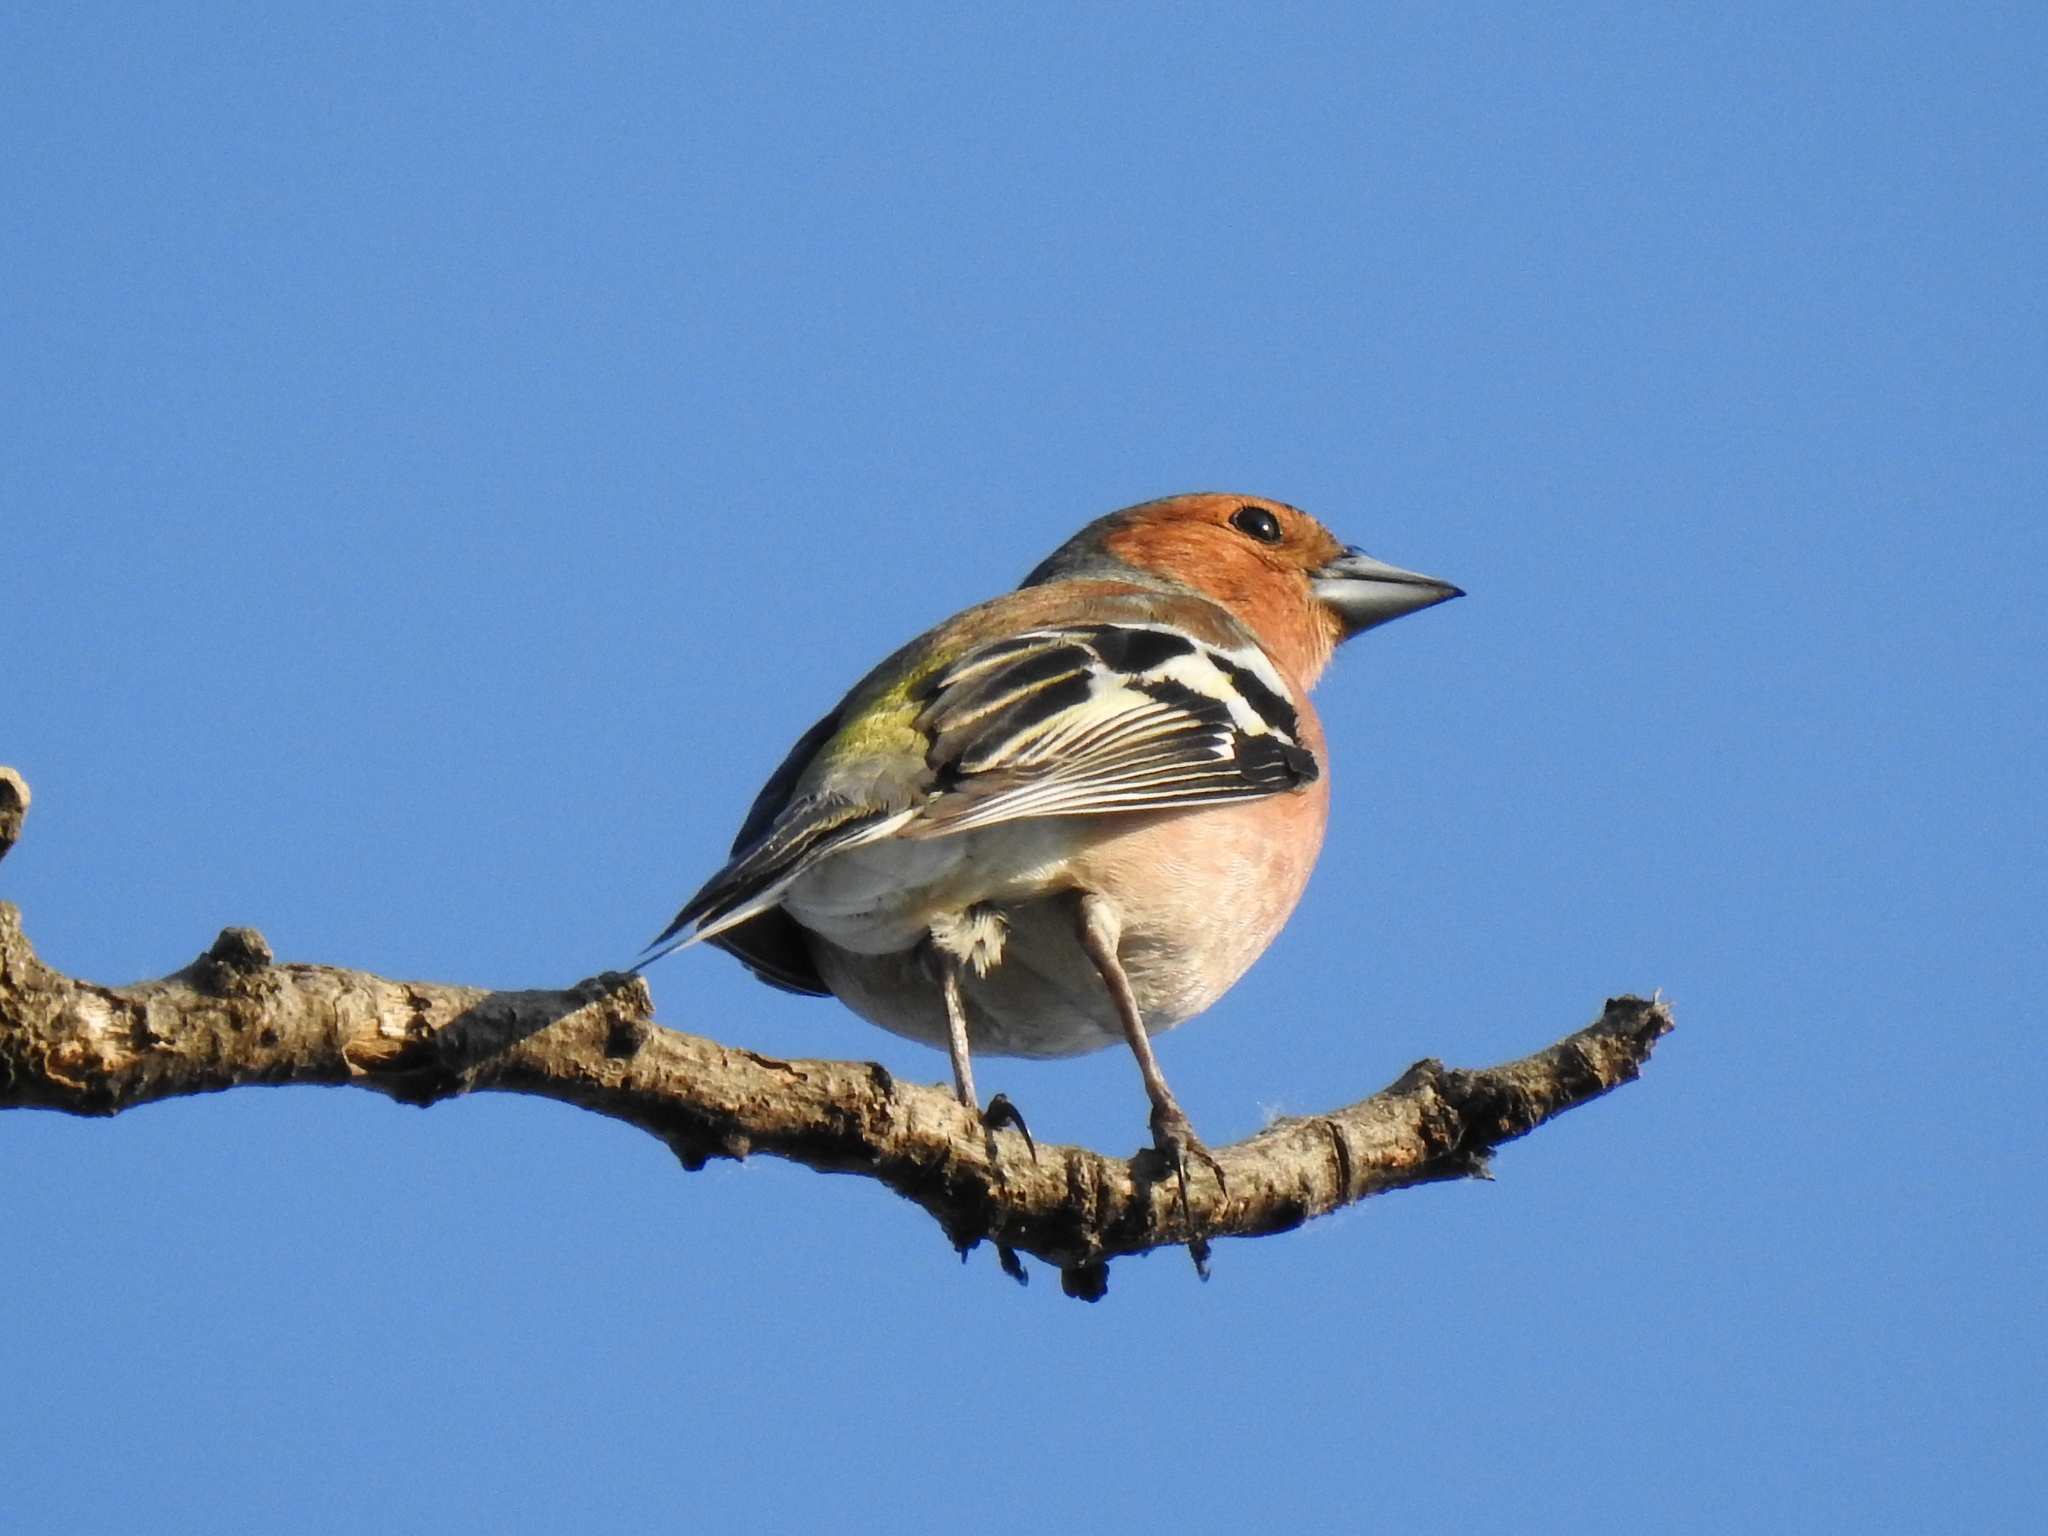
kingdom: Animalia
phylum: Chordata
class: Aves
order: Passeriformes
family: Fringillidae
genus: Fringilla
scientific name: Fringilla coelebs
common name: Common chaffinch
